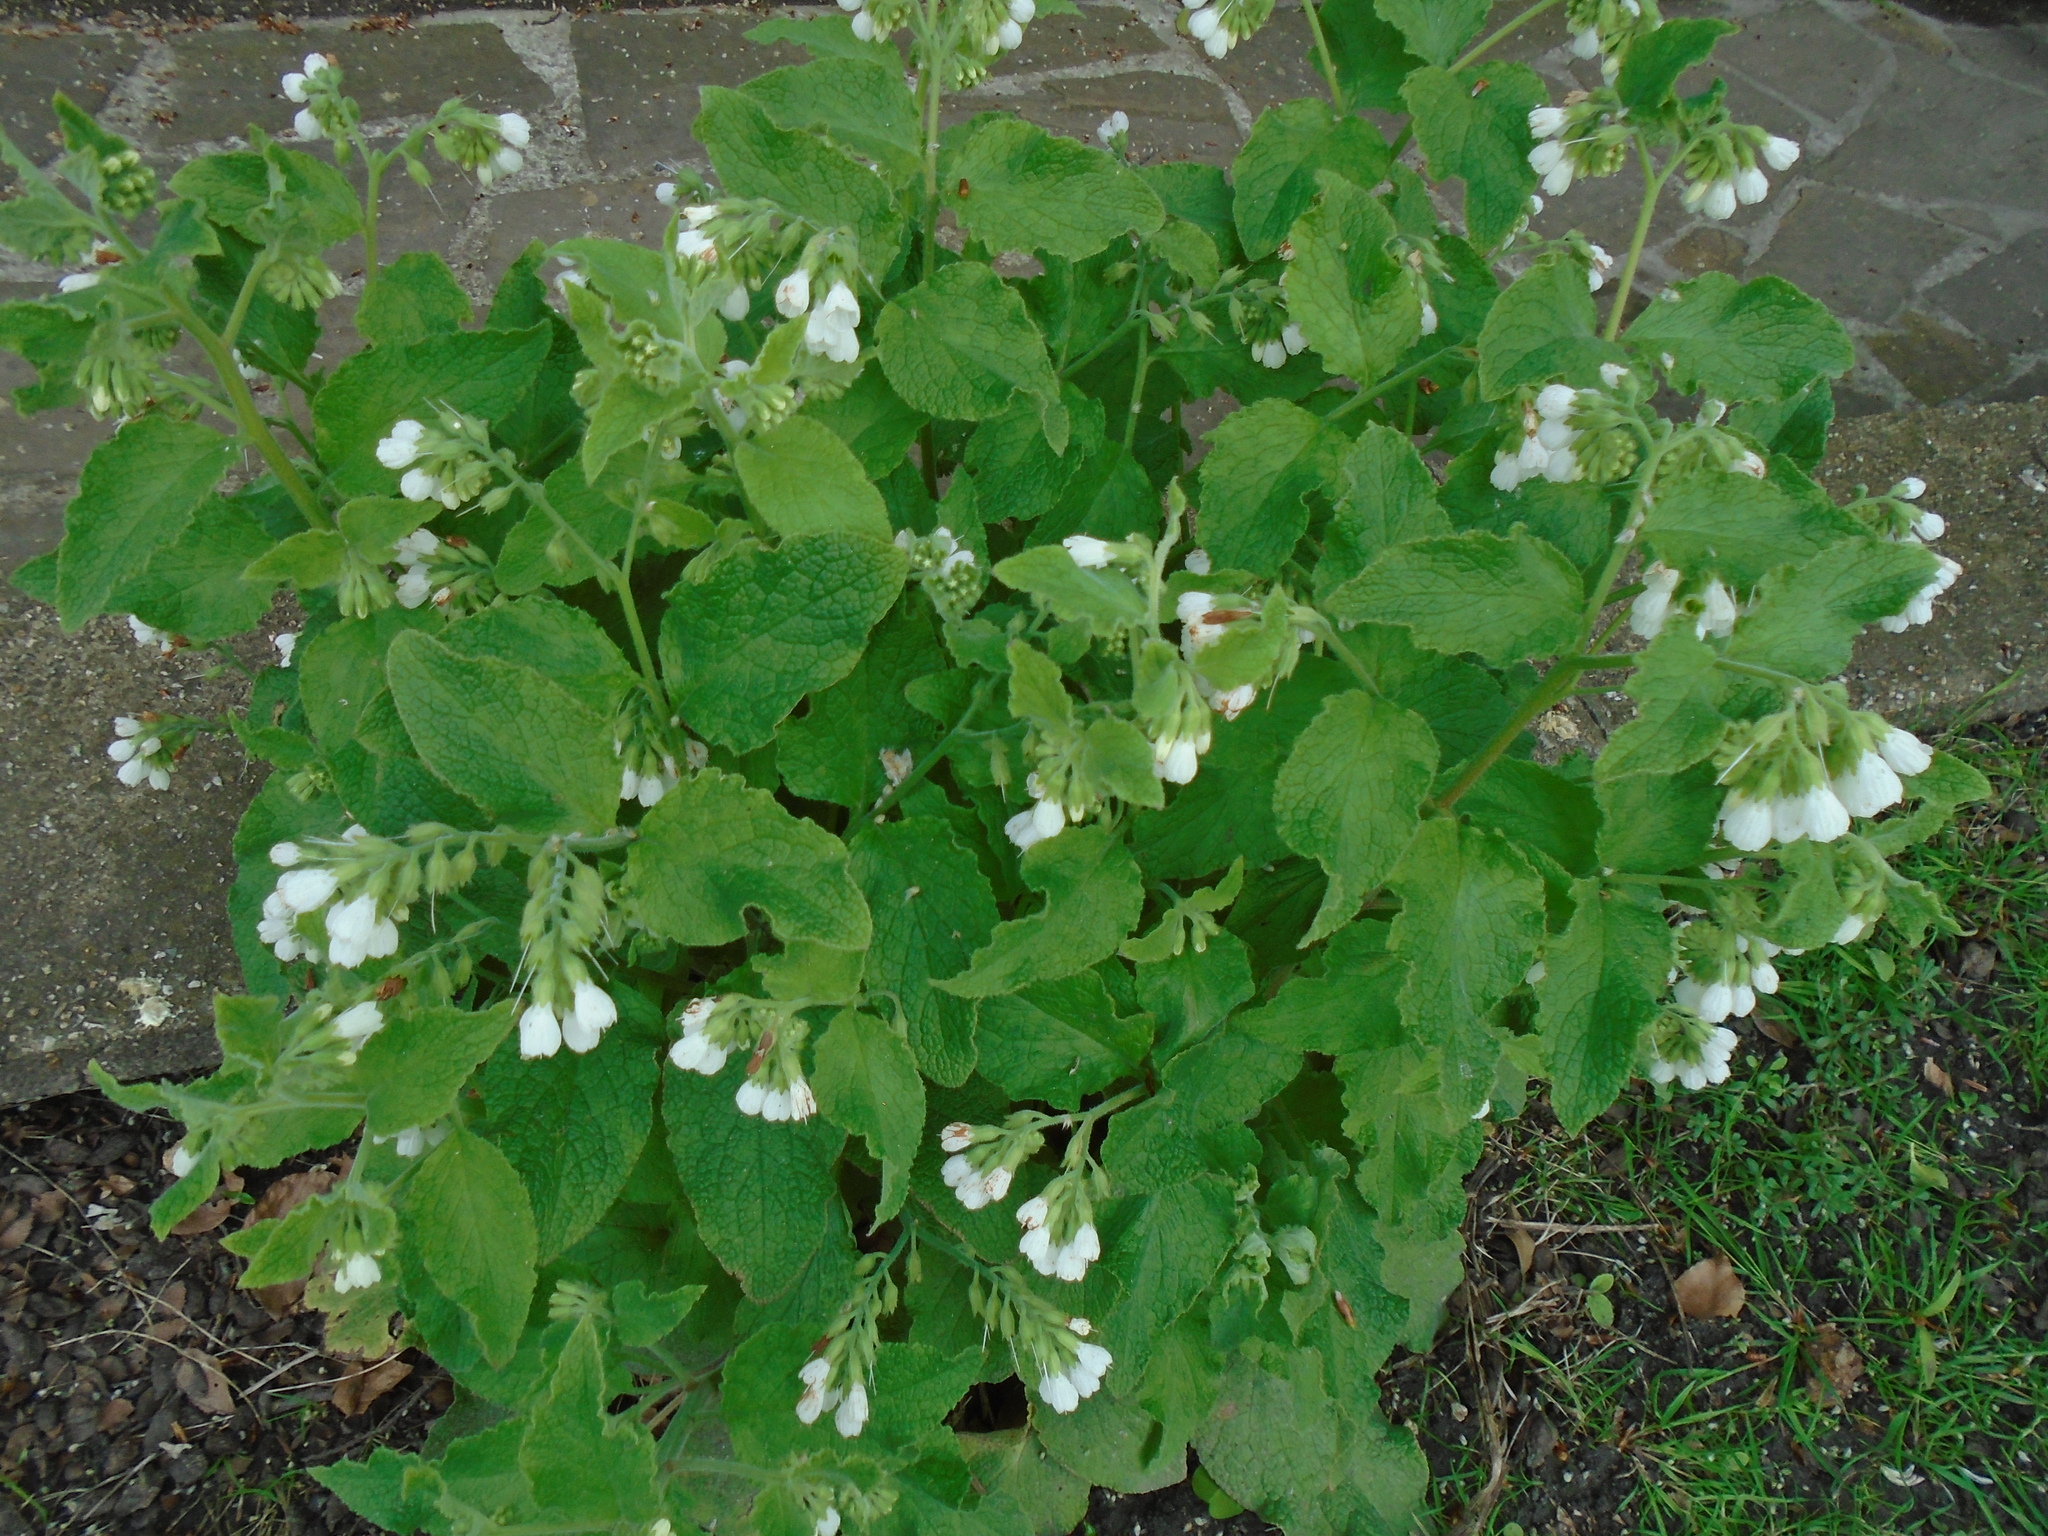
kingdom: Plantae
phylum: Tracheophyta
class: Magnoliopsida
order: Boraginales
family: Boraginaceae
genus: Symphytum
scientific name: Symphytum orientale
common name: White comfrey
